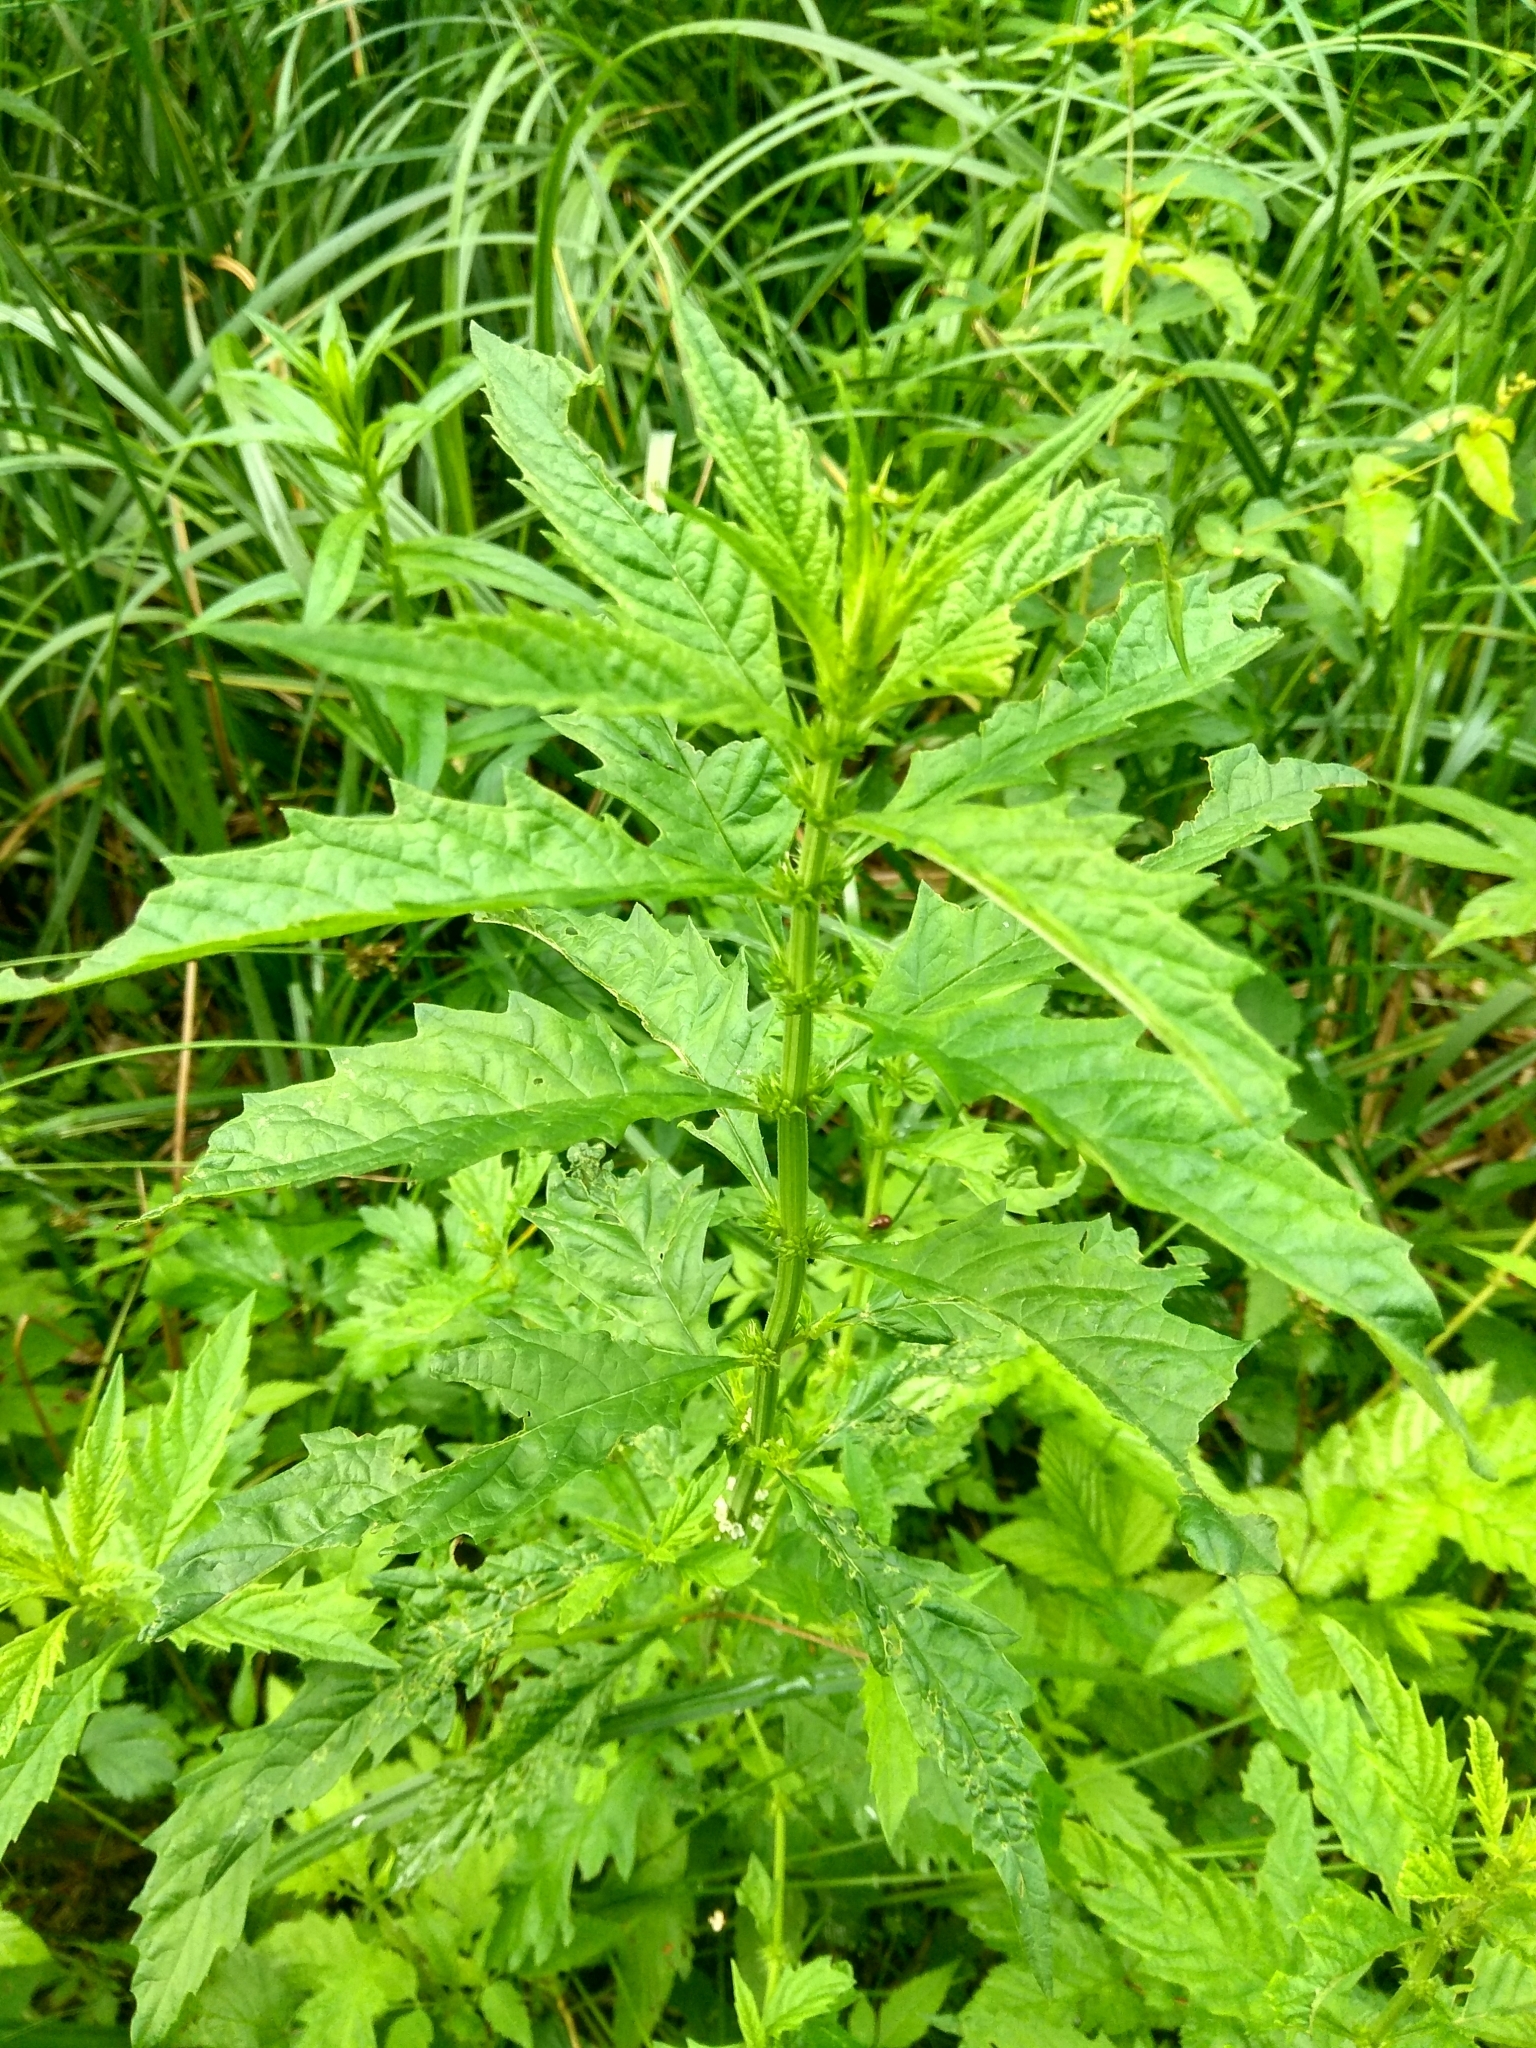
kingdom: Plantae
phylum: Tracheophyta
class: Magnoliopsida
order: Lamiales
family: Lamiaceae
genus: Lycopus
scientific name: Lycopus europaeus
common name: European bugleweed
